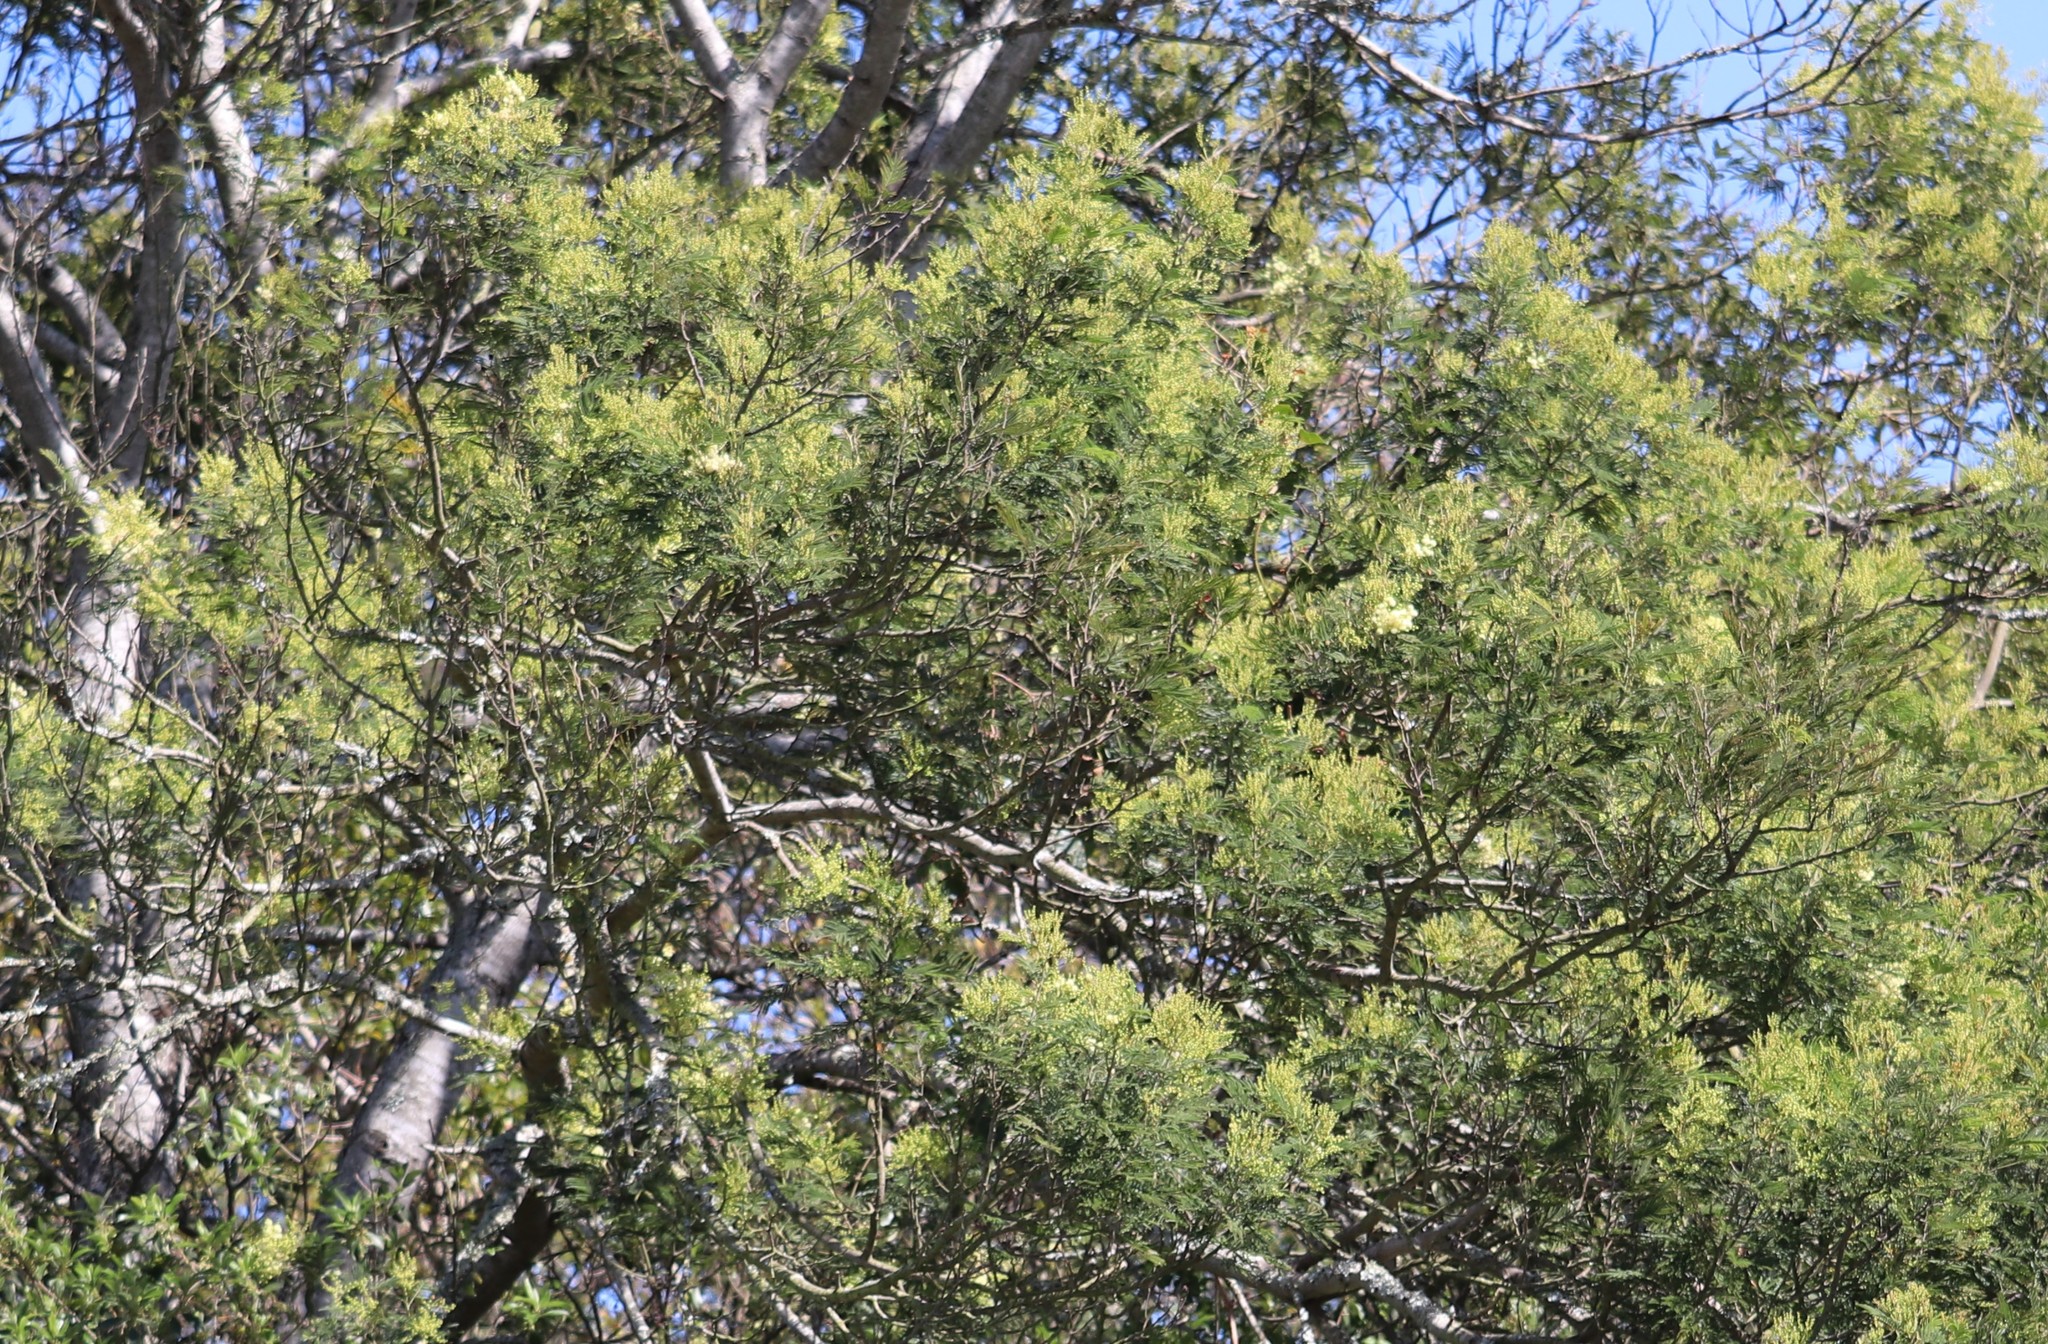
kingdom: Plantae
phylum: Tracheophyta
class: Magnoliopsida
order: Fabales
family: Fabaceae
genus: Acacia
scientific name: Acacia mearnsii
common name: Black wattle
